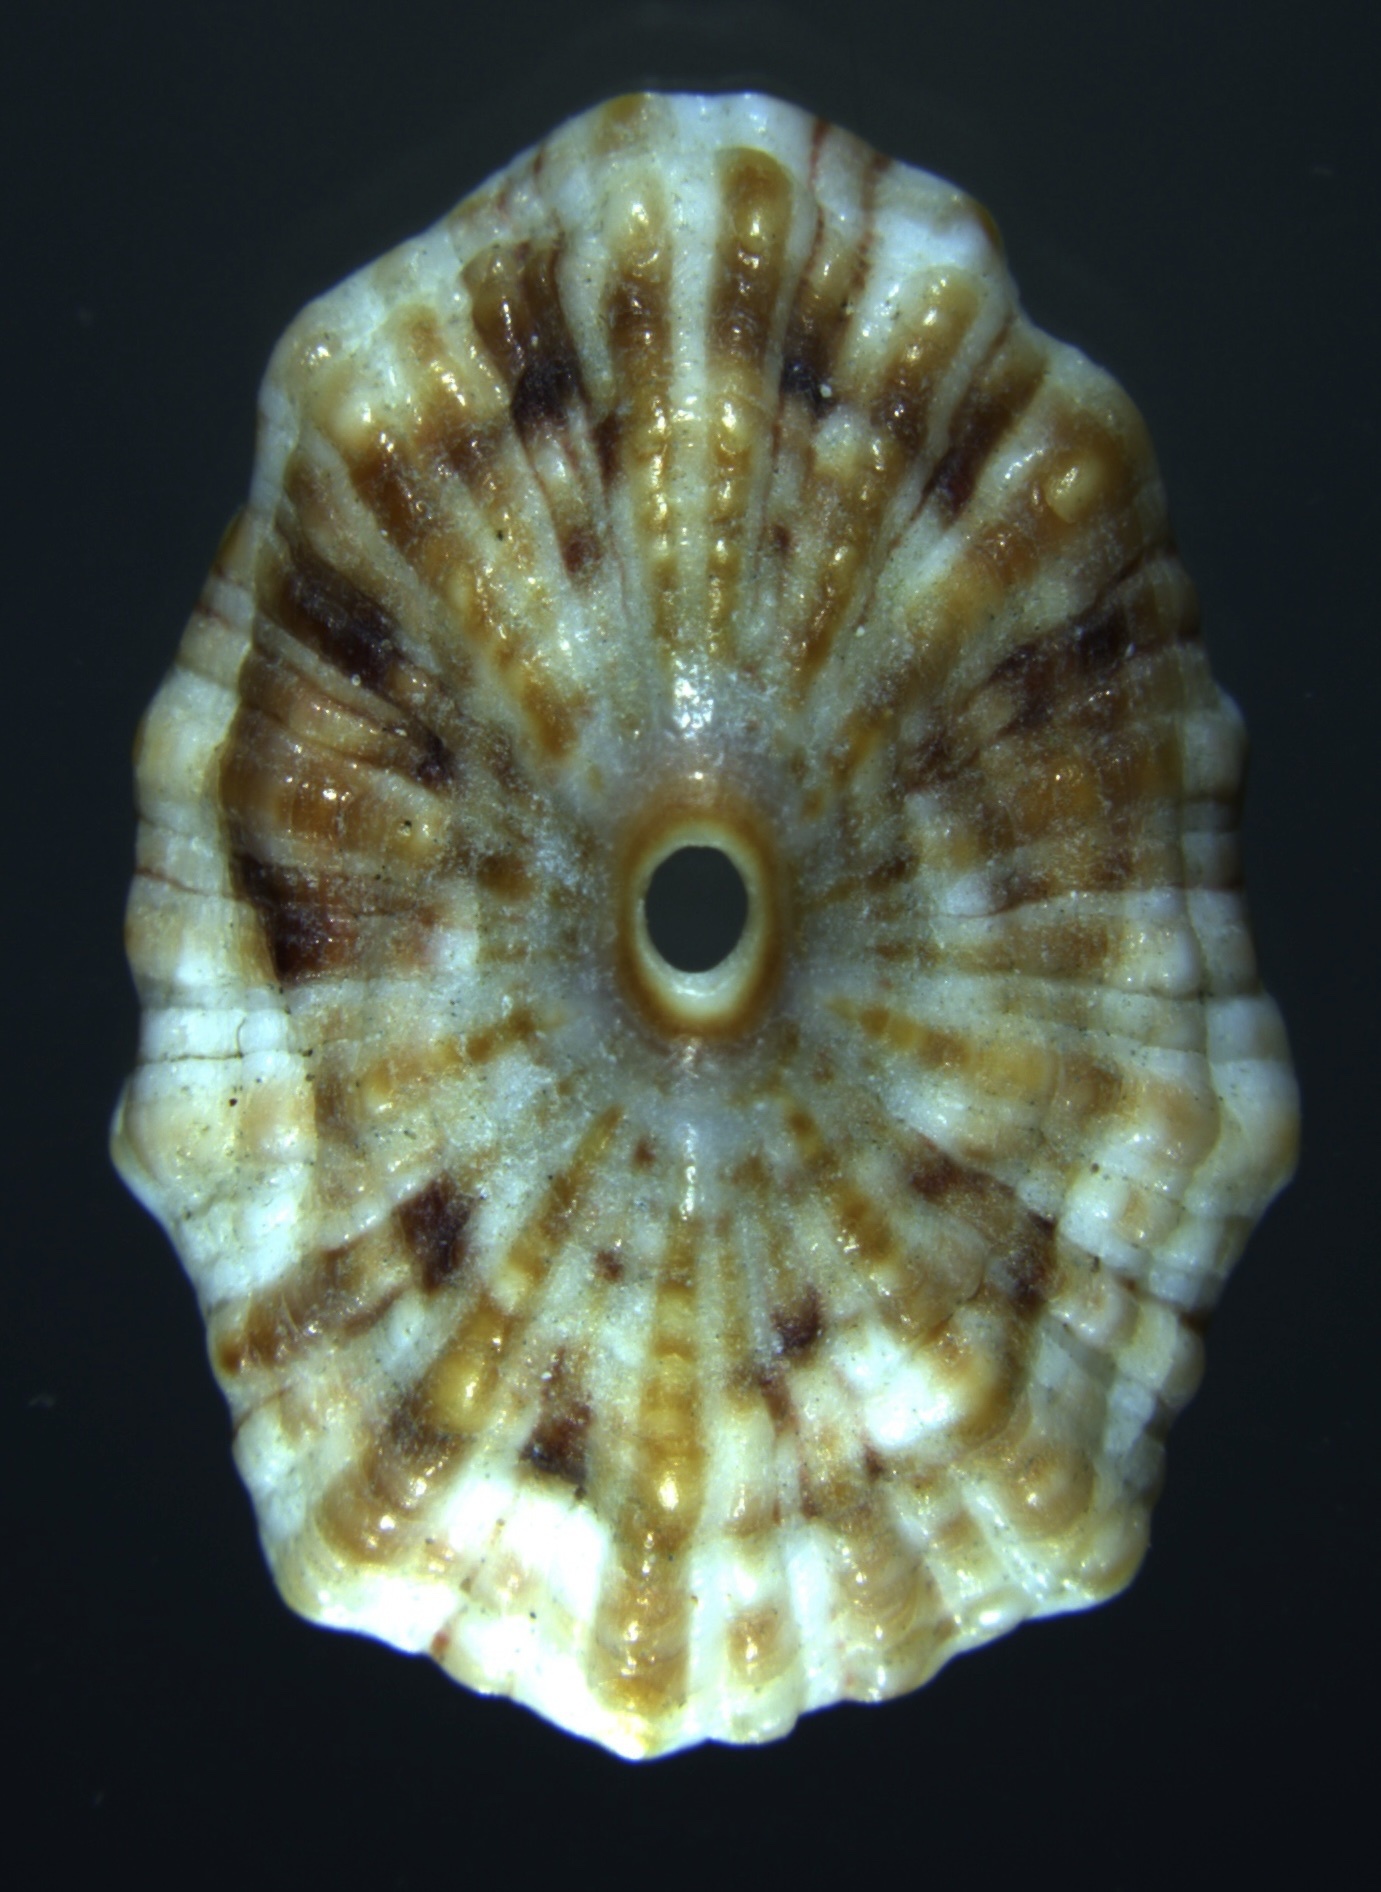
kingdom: Animalia
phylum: Mollusca
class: Gastropoda
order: Lepetellida
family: Fissurellidae
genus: Fissurella
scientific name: Fissurella barbadensis
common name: Barbados keyhole limpet
